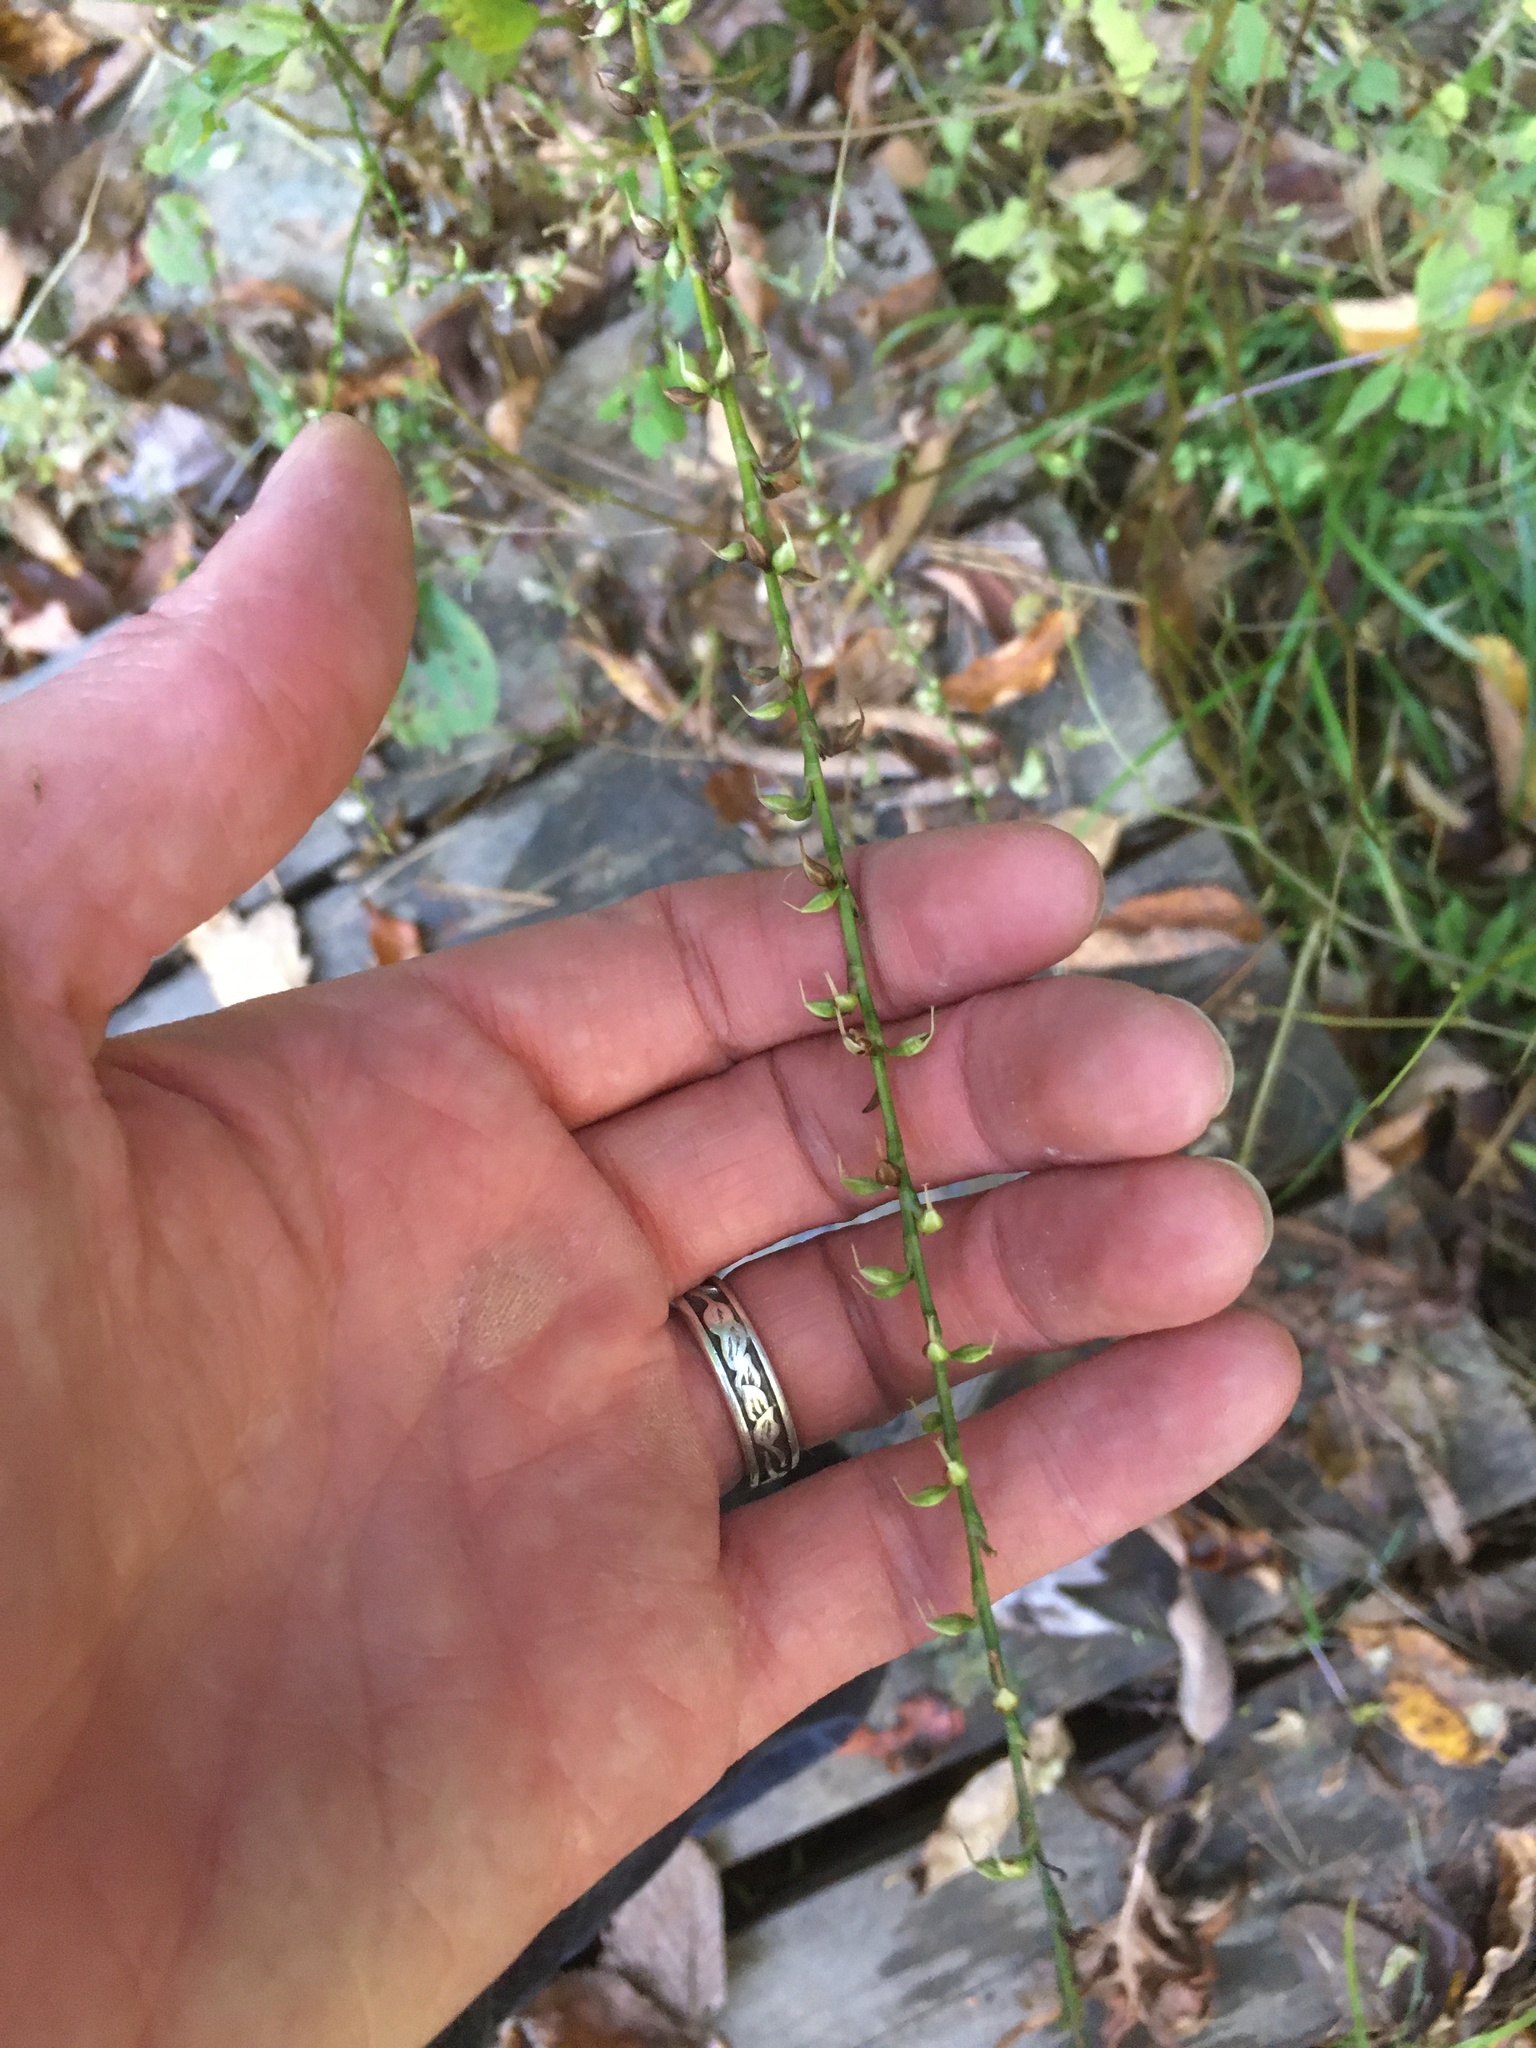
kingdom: Plantae
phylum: Tracheophyta
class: Magnoliopsida
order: Caryophyllales
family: Polygonaceae
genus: Persicaria
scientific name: Persicaria virginiana
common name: Jumpseed
